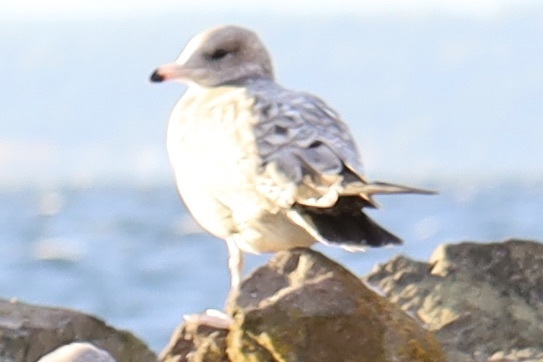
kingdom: Animalia
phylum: Chordata
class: Aves
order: Charadriiformes
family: Laridae
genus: Larus
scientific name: Larus delawarensis
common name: Ring-billed gull
